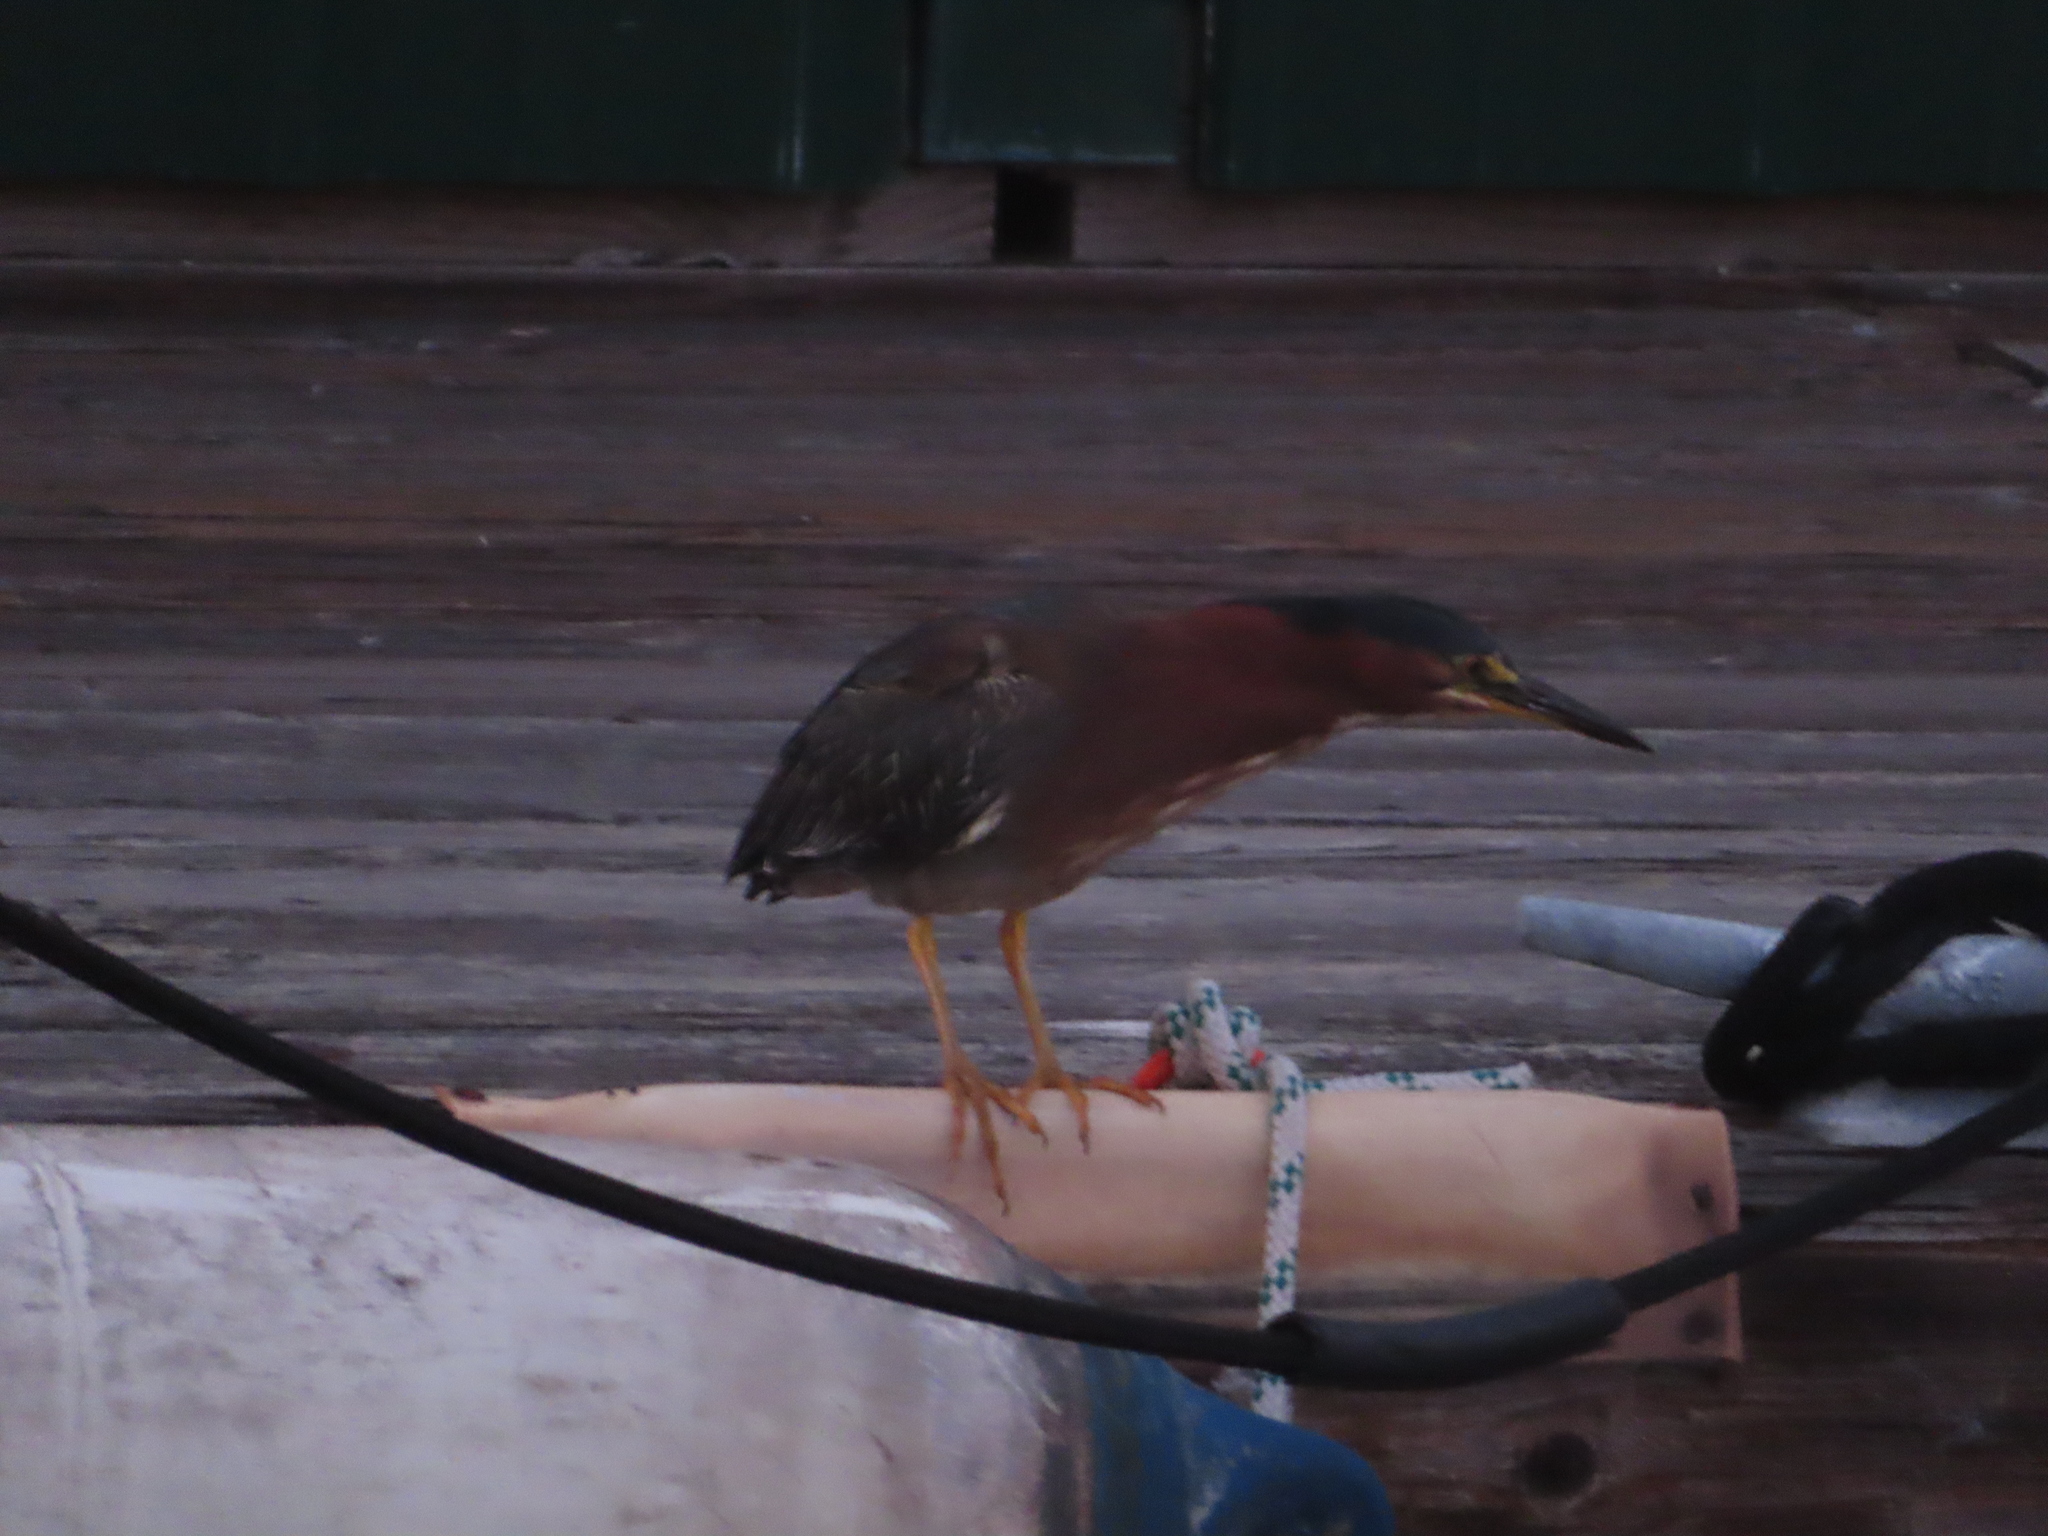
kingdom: Animalia
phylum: Chordata
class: Aves
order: Pelecaniformes
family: Ardeidae
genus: Butorides
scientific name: Butorides virescens
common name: Green heron
